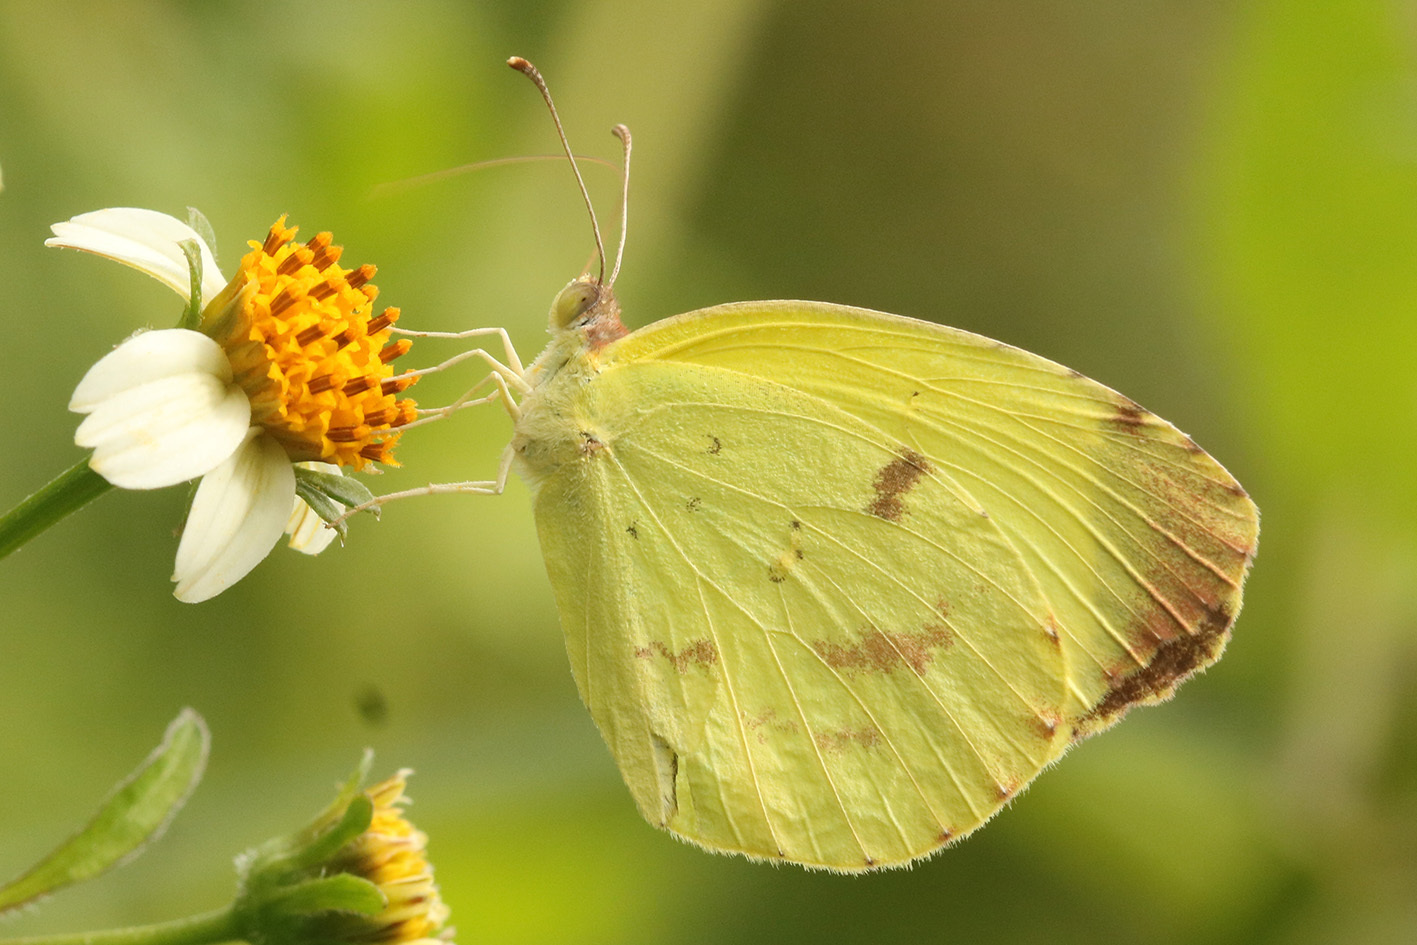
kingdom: Animalia
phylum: Arthropoda
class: Insecta
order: Lepidoptera
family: Pieridae
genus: Teriocolias
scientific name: Teriocolias
